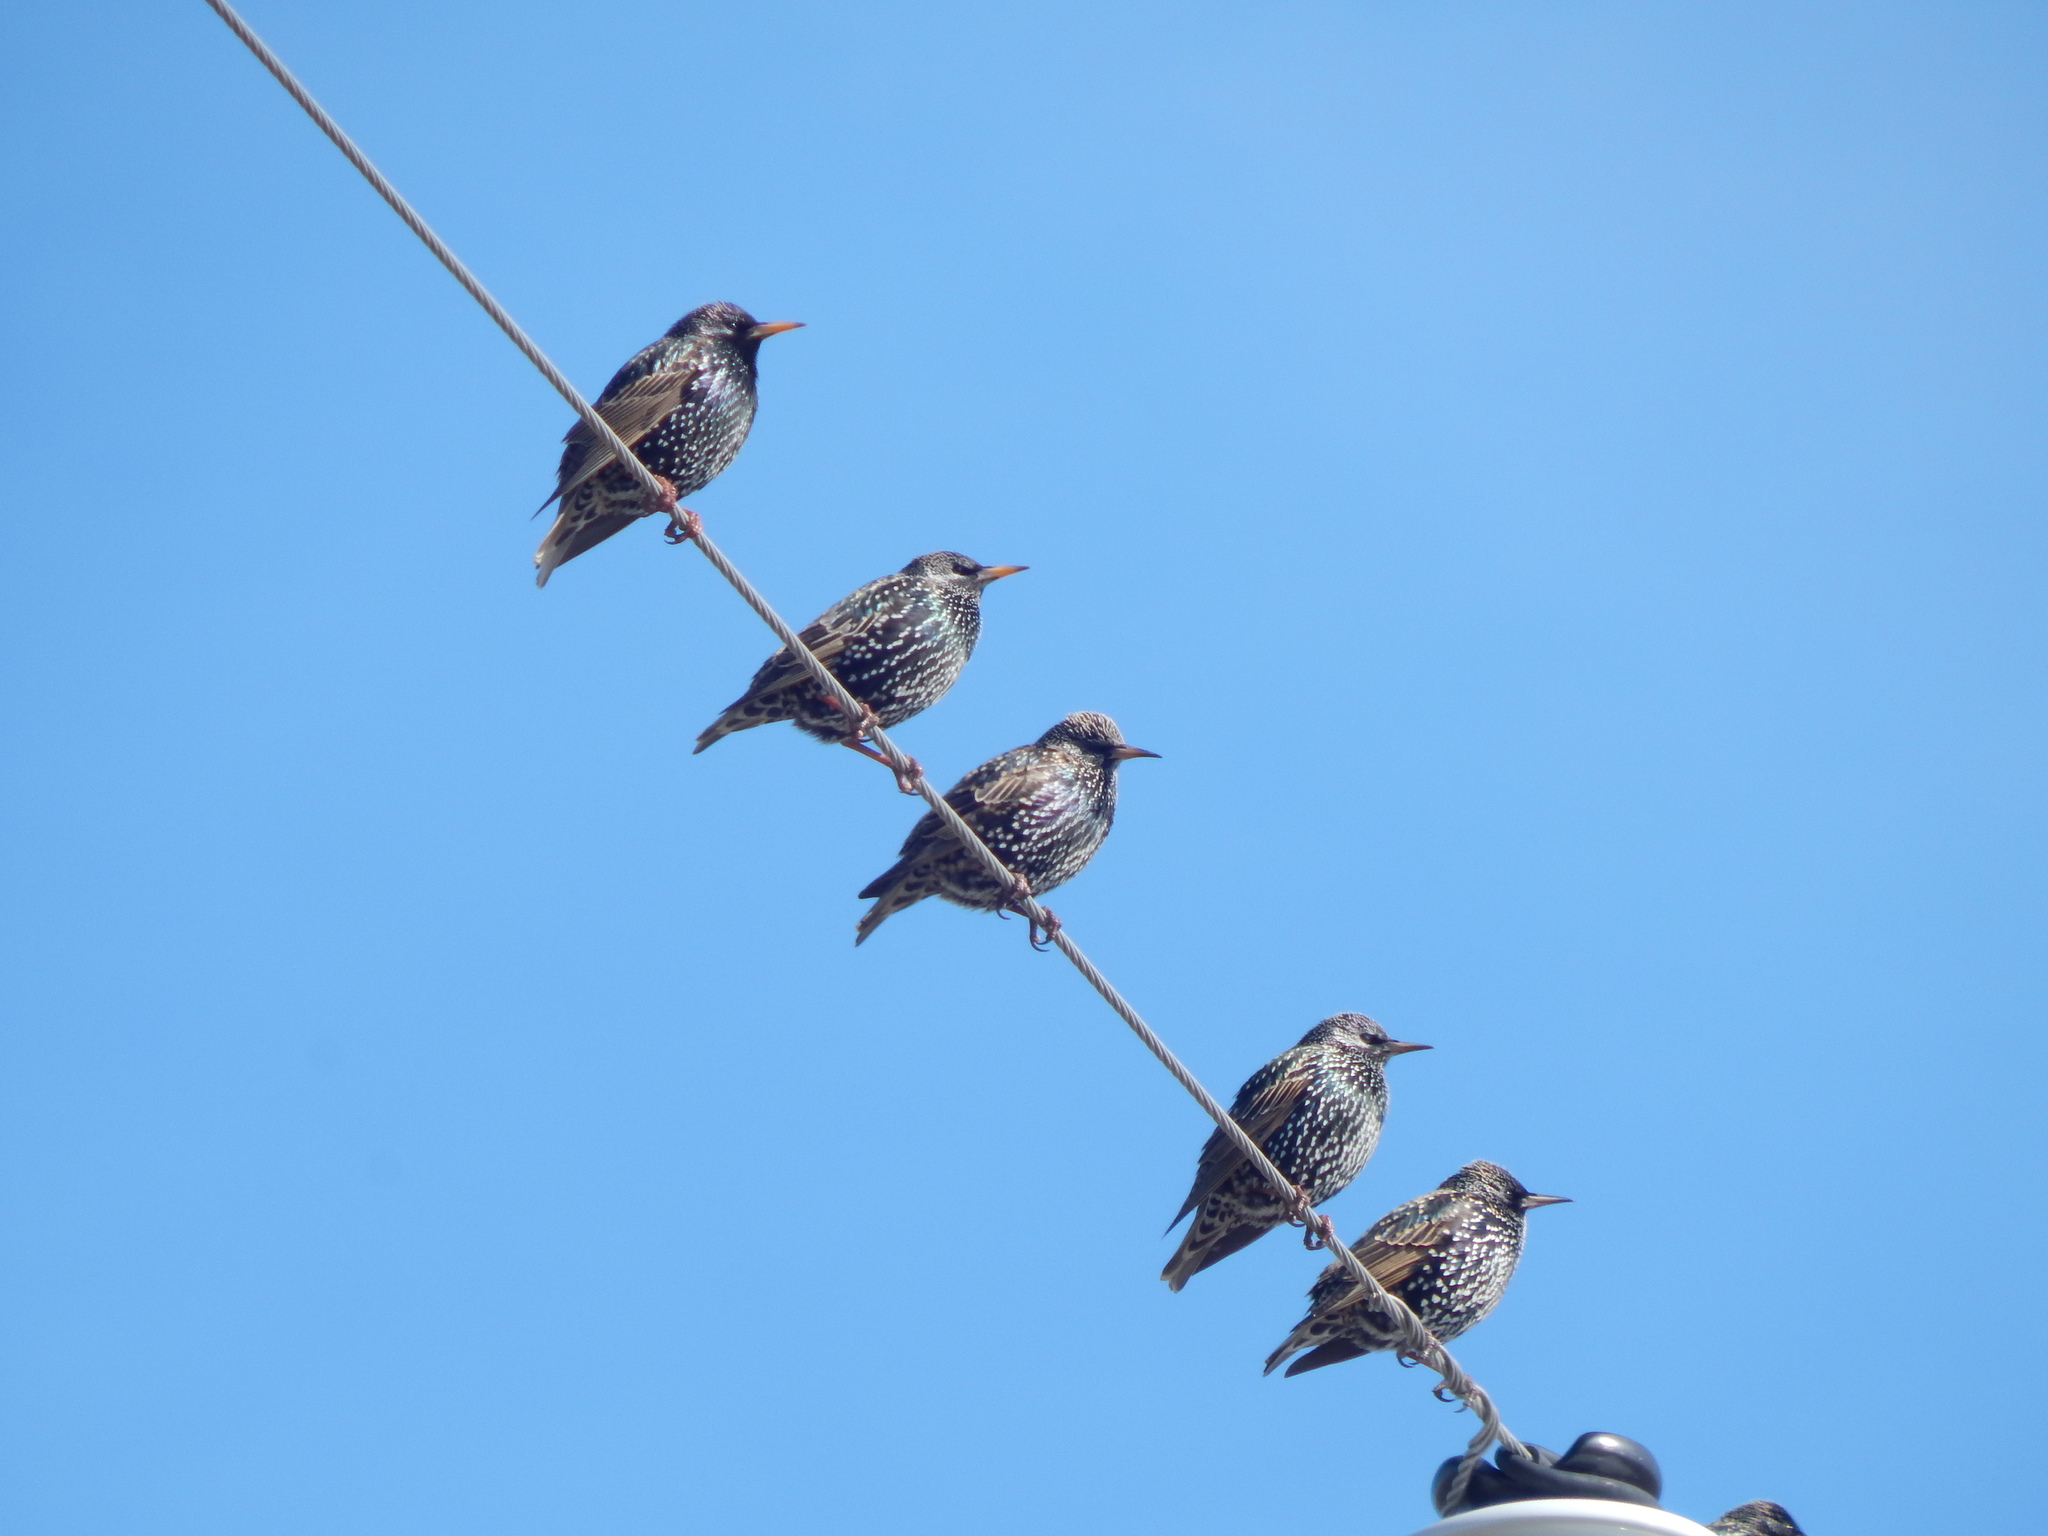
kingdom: Animalia
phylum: Chordata
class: Aves
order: Passeriformes
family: Sturnidae
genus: Sturnus
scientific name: Sturnus vulgaris
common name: Common starling
